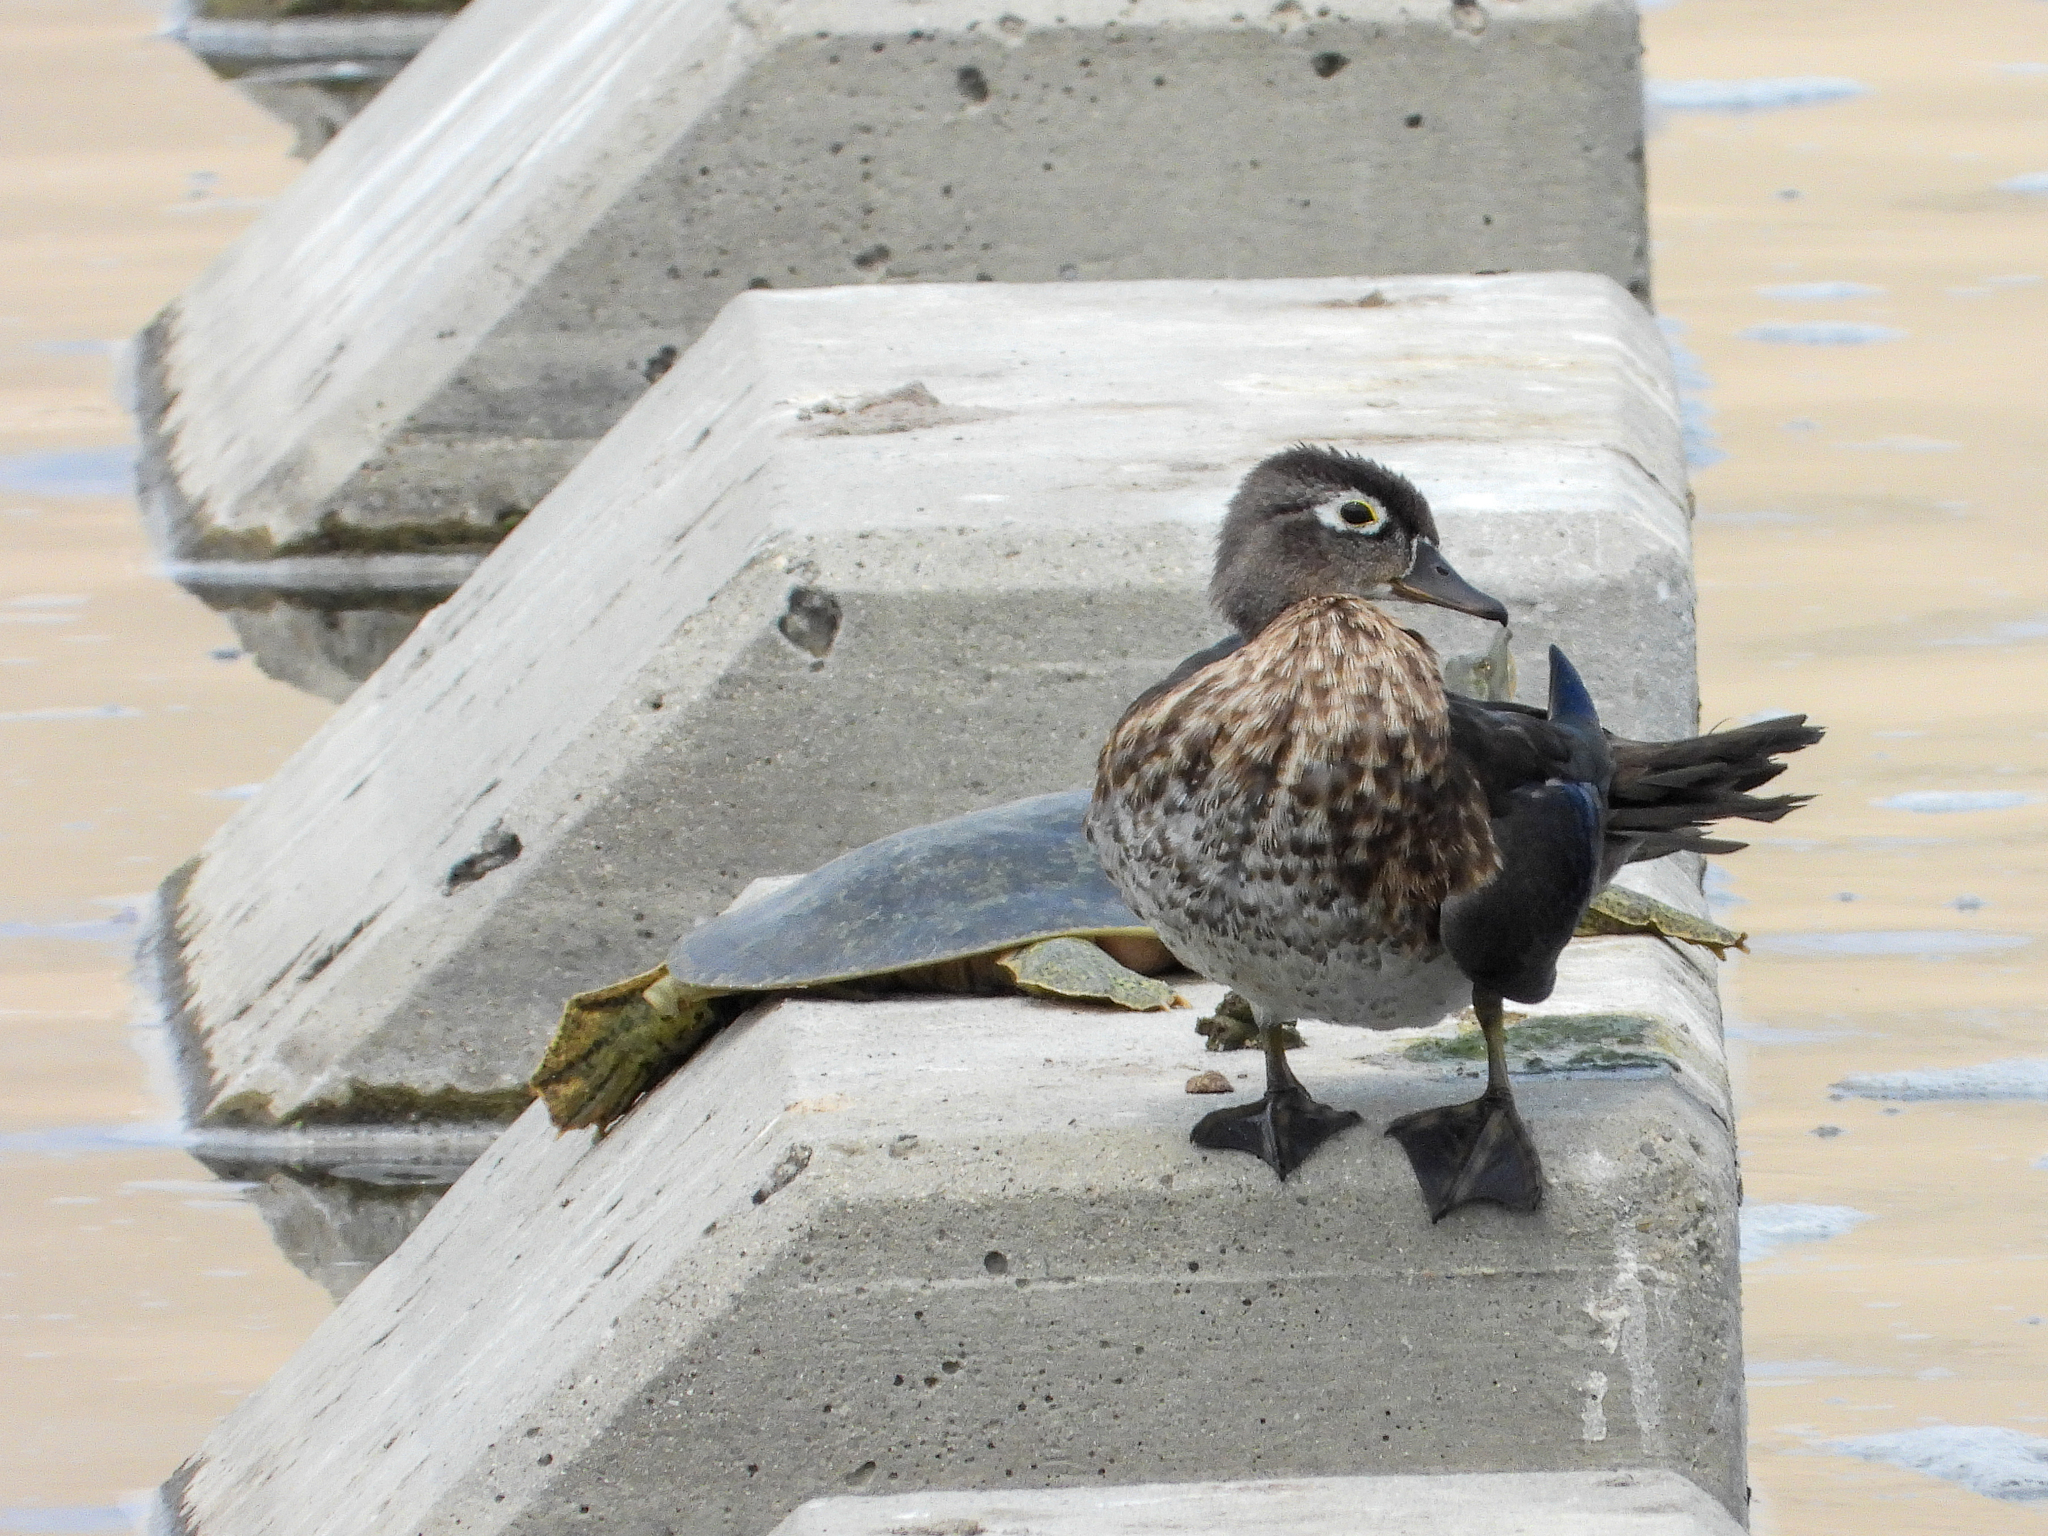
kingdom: Animalia
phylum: Chordata
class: Aves
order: Anseriformes
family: Anatidae
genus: Aix
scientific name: Aix sponsa
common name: Wood duck
